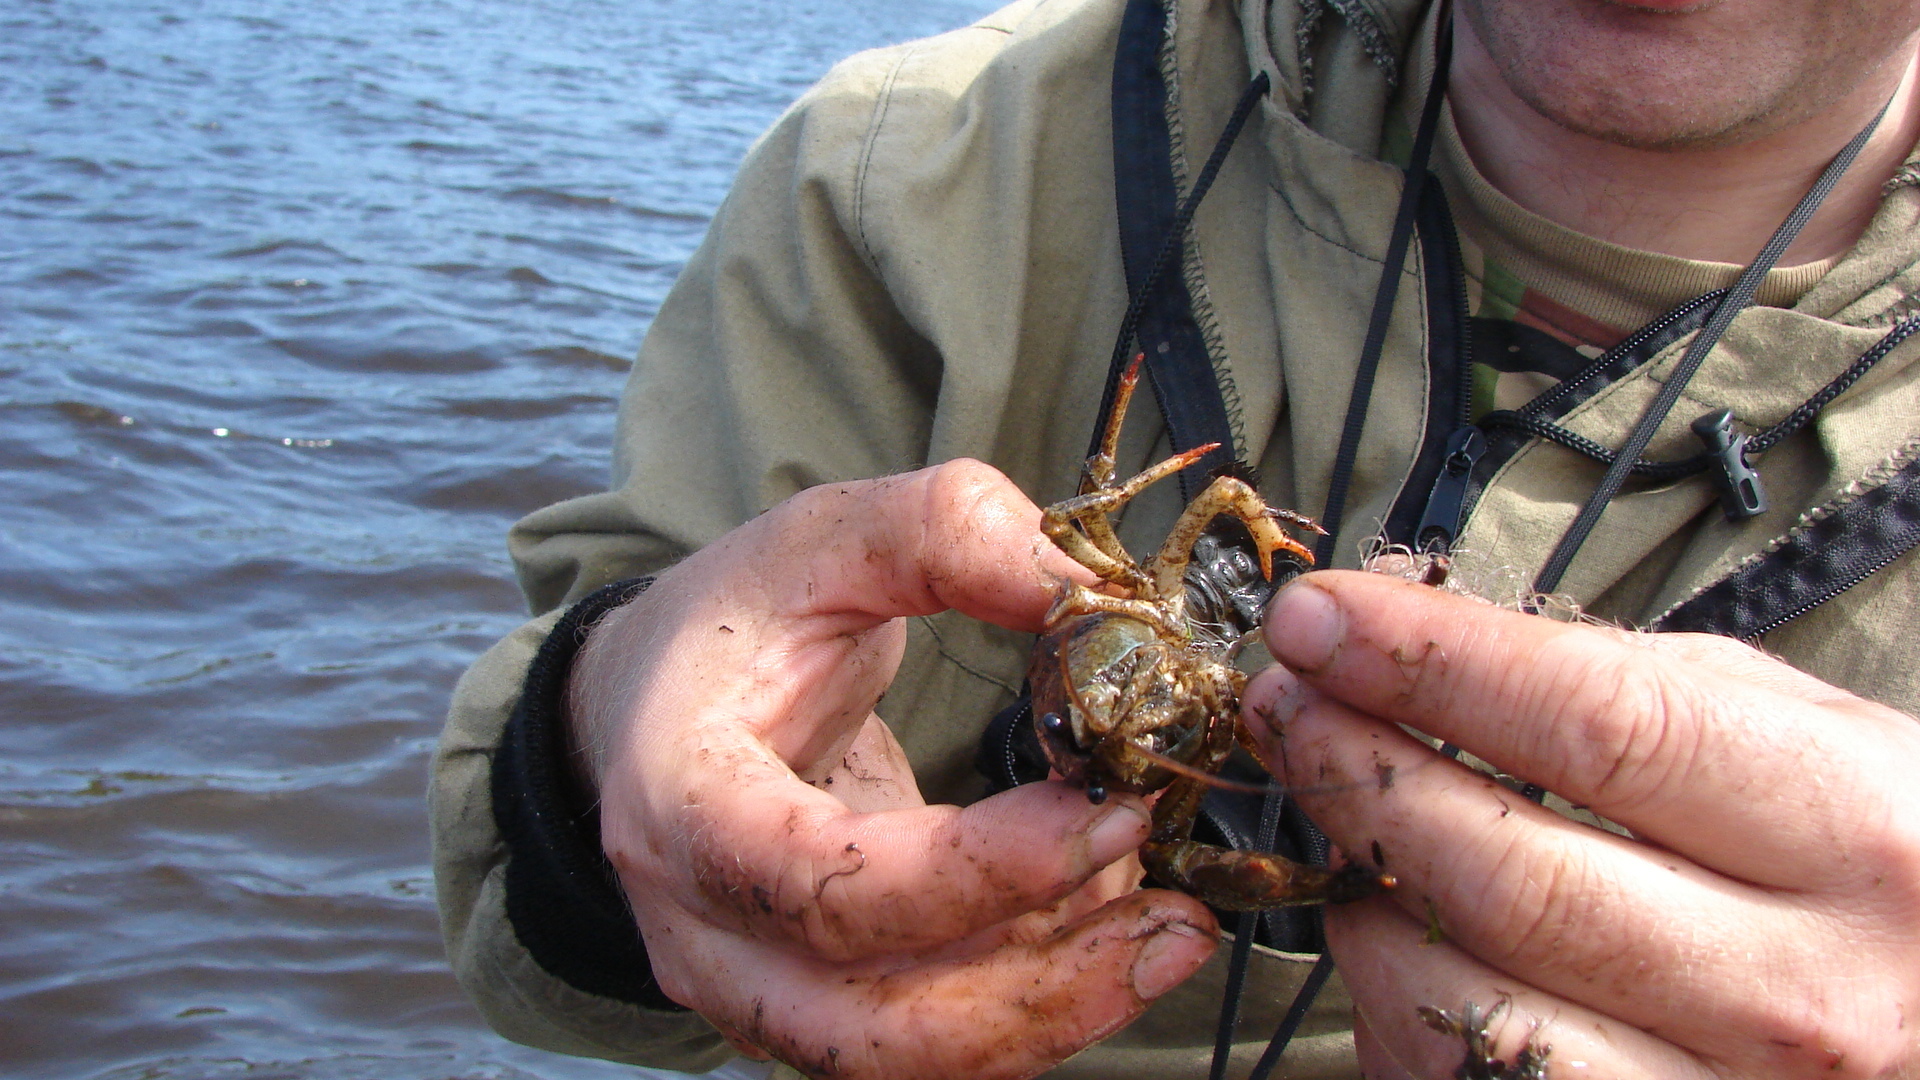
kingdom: Animalia
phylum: Arthropoda
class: Malacostraca
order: Decapoda
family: Astacidae
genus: Pontastacus
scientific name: Pontastacus leptodactylus
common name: Danube crayfish
